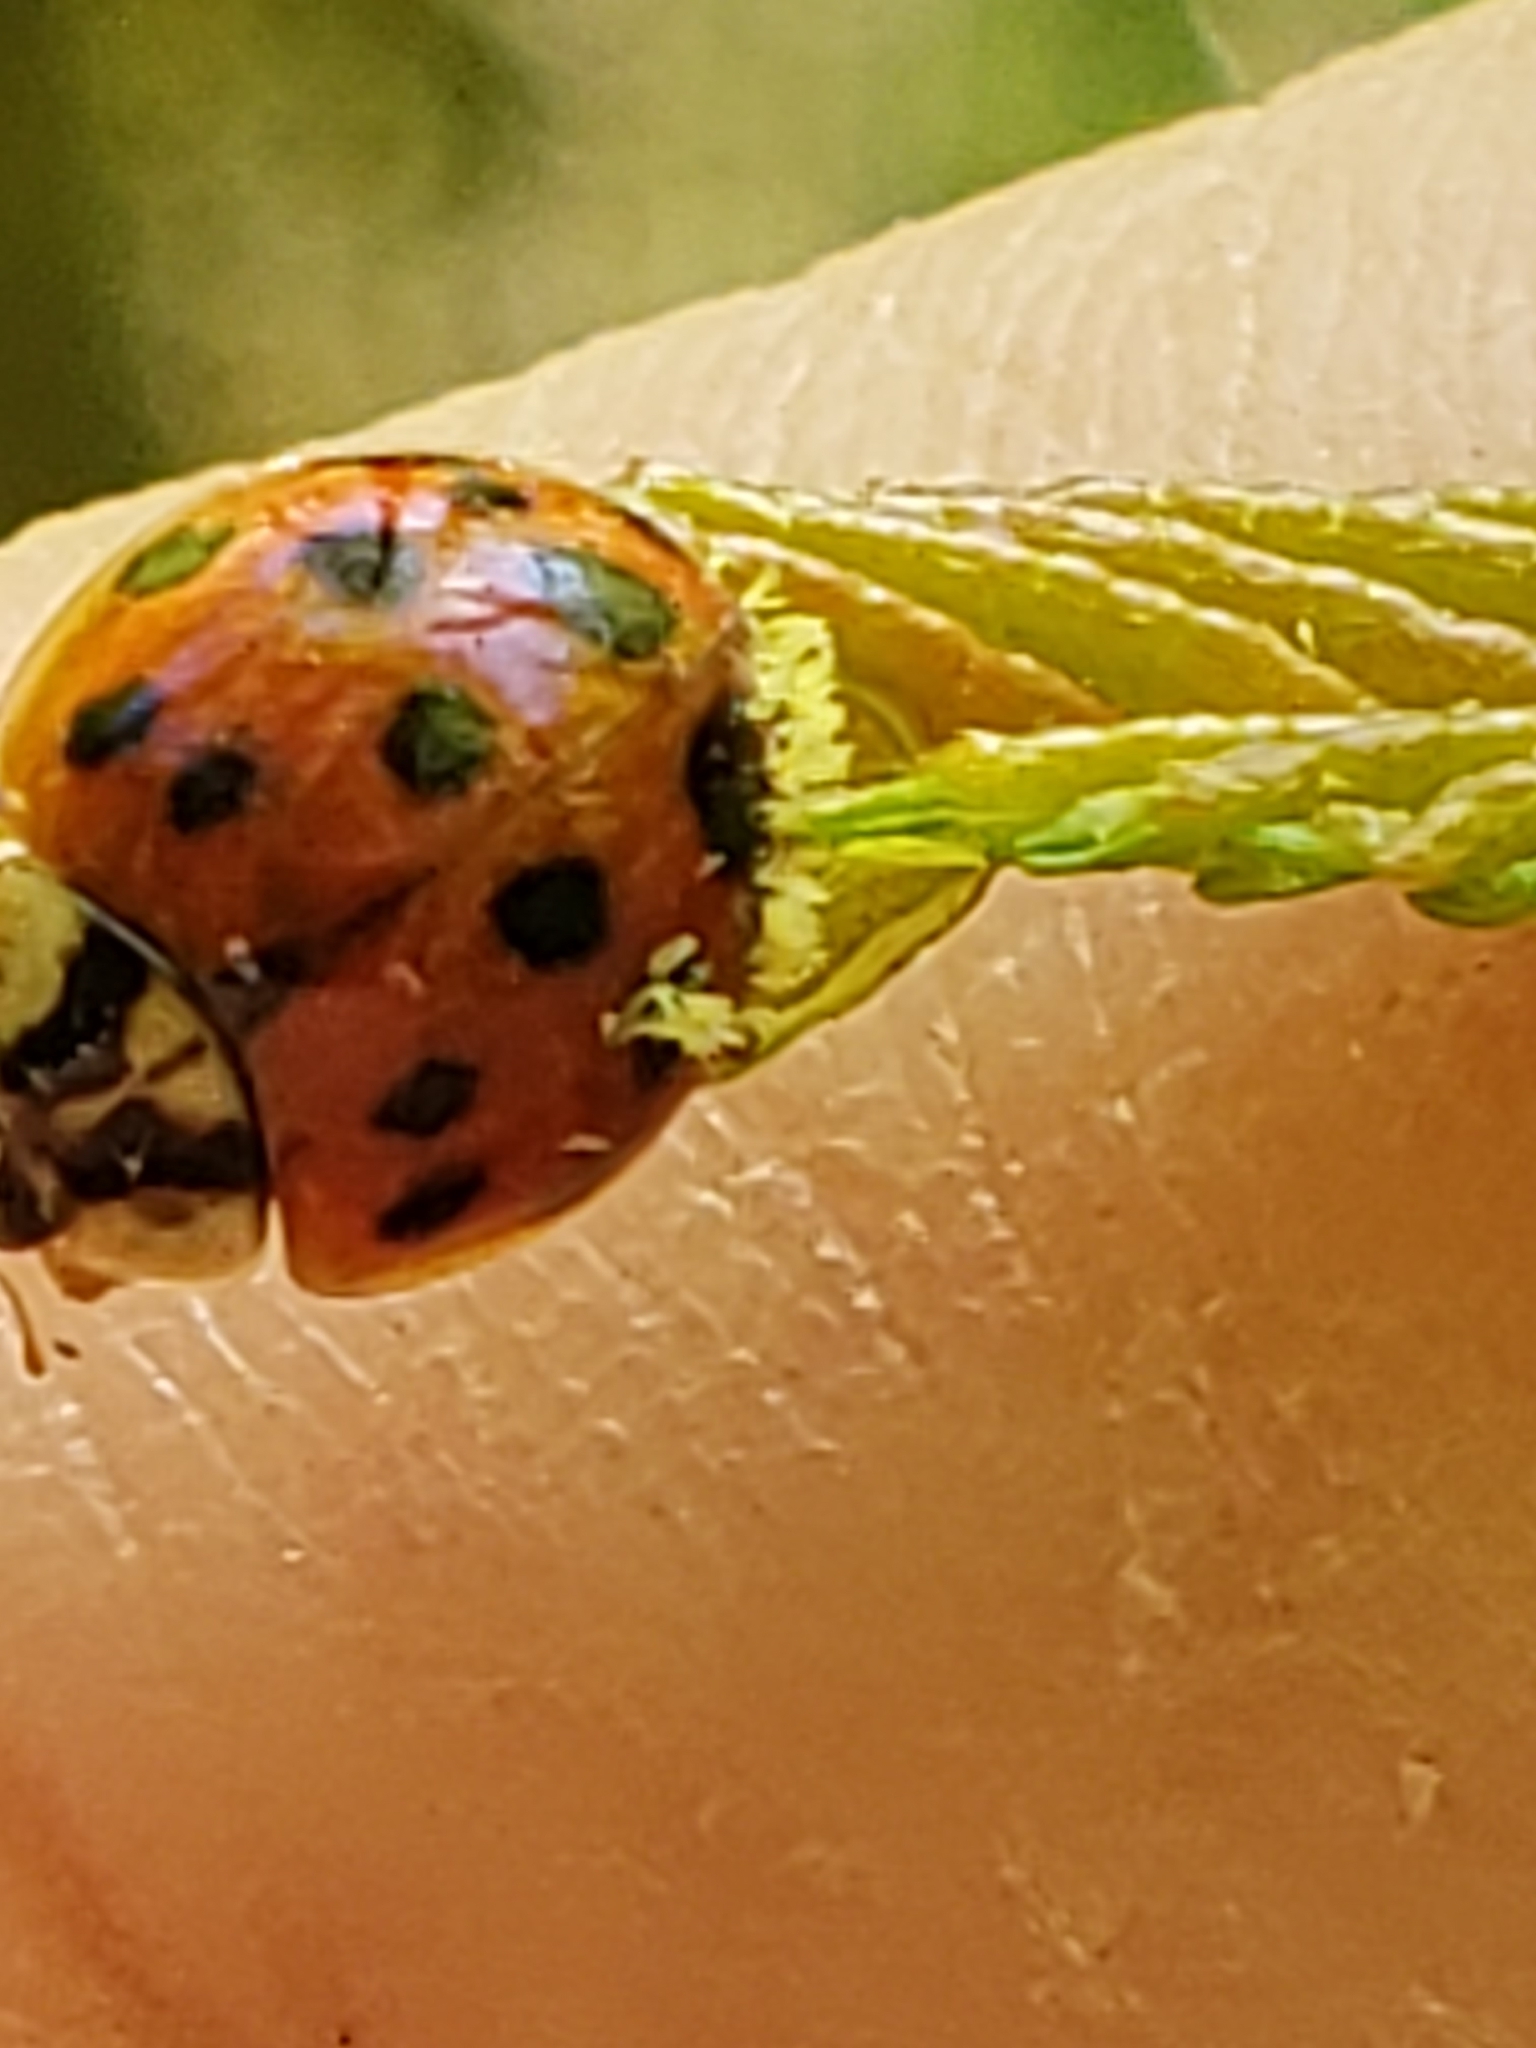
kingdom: Fungi
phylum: Ascomycota
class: Laboulbeniomycetes
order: Laboulbeniales
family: Laboulbeniaceae
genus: Hesperomyces
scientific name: Hesperomyces harmoniae
